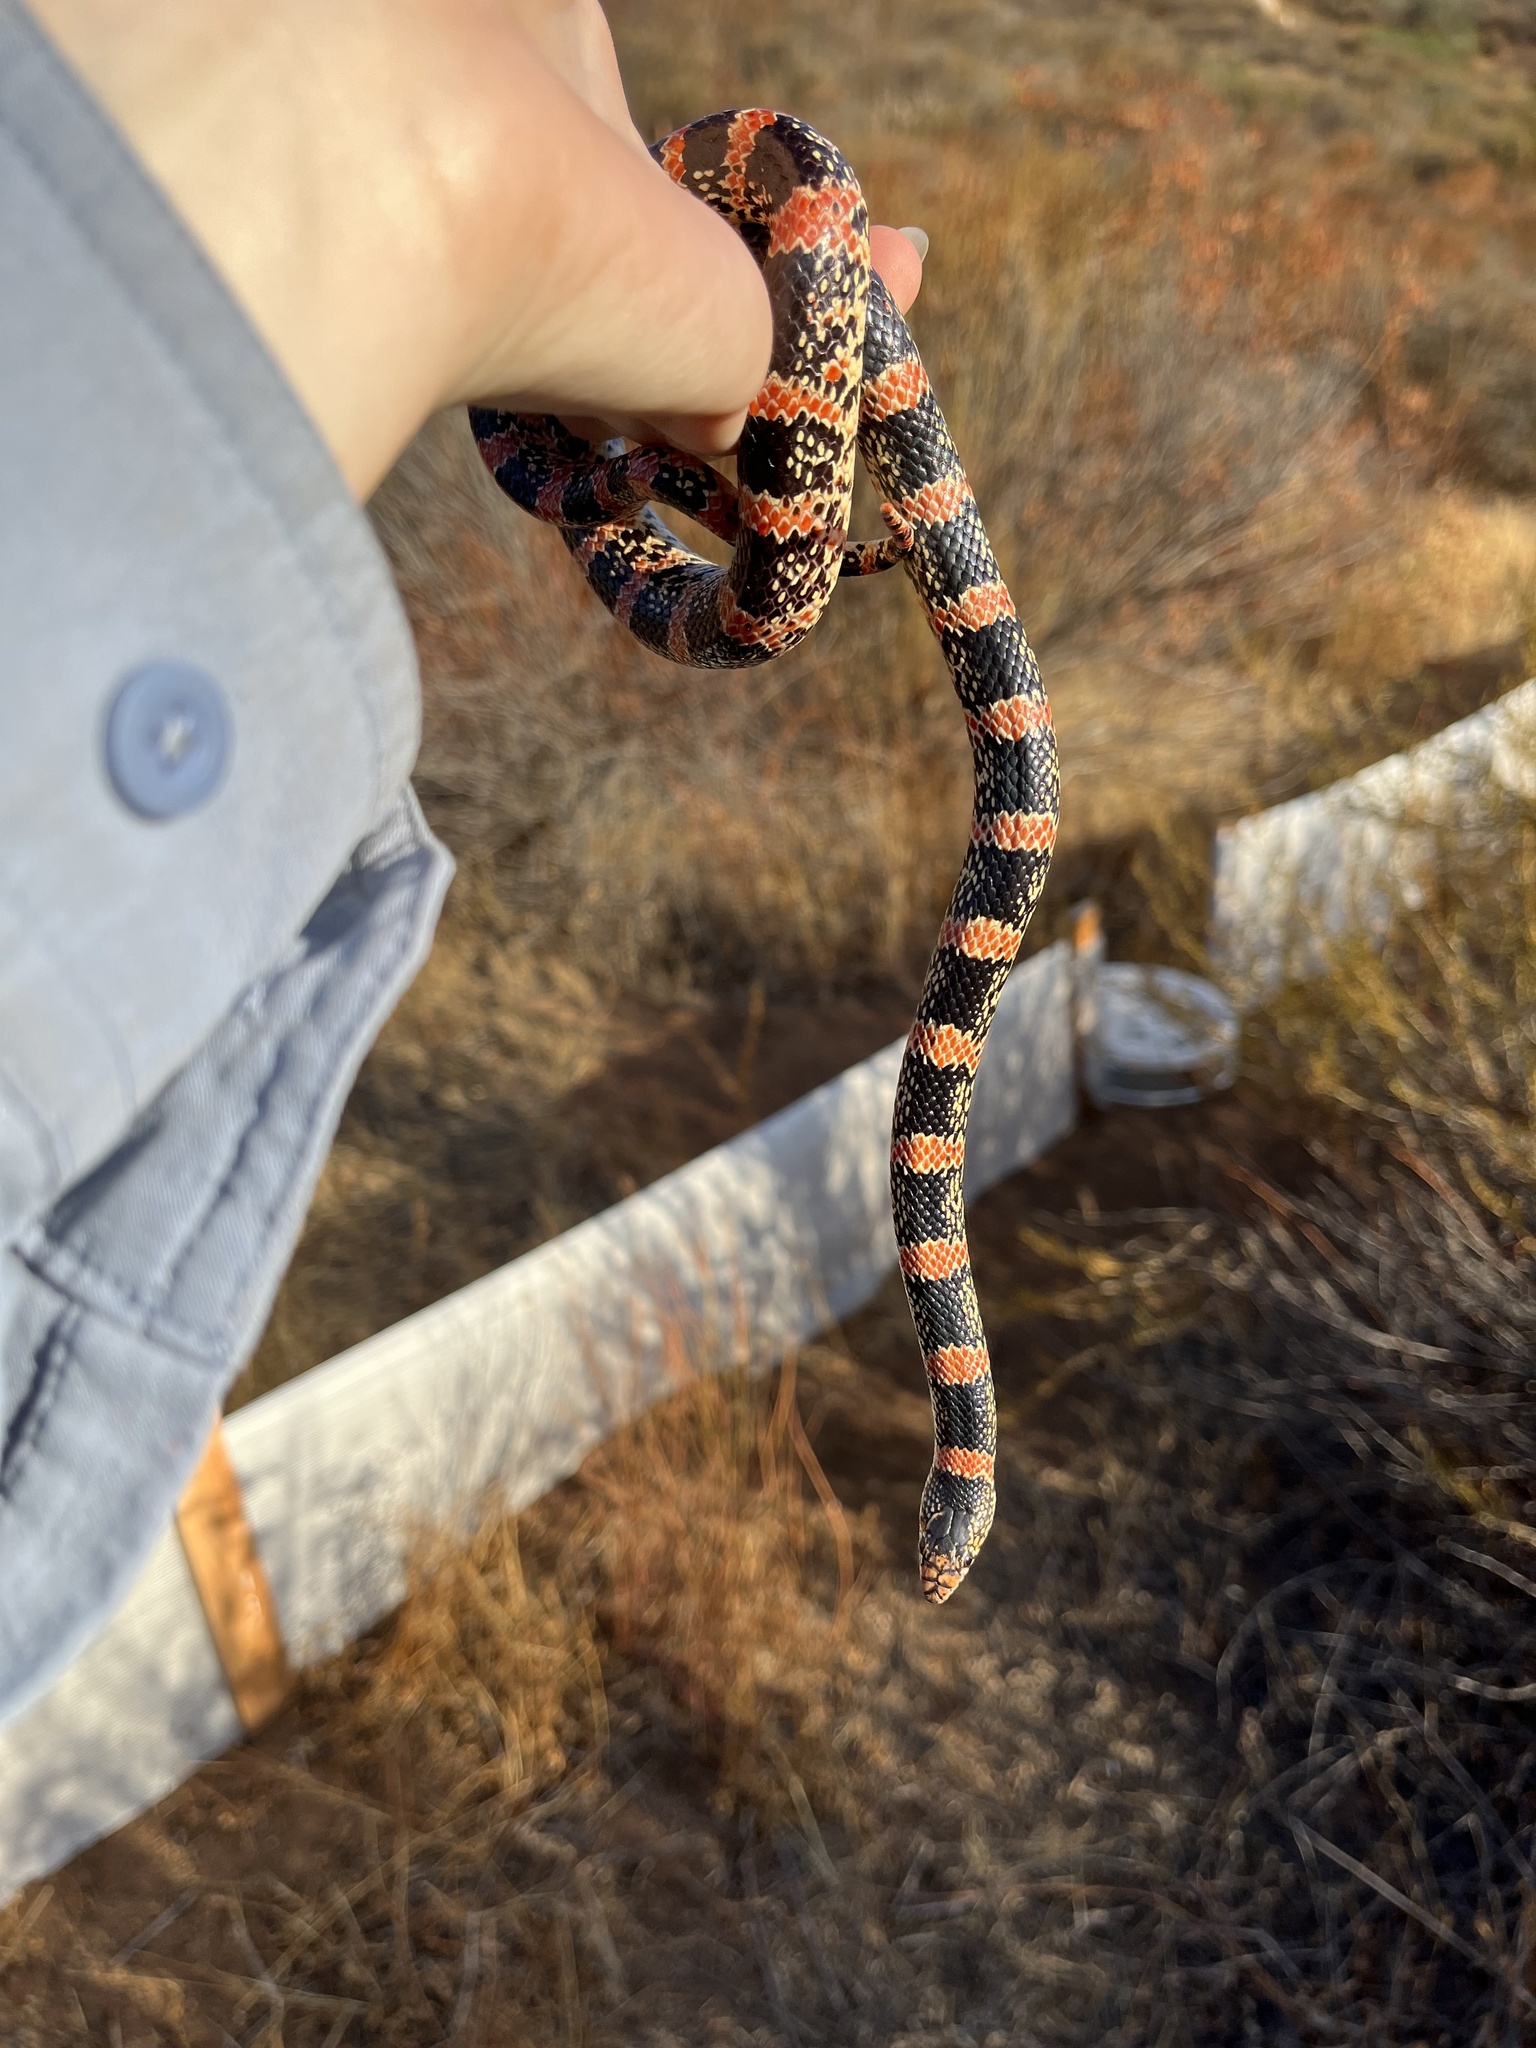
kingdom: Animalia
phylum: Chordata
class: Squamata
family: Colubridae
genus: Rhinocheilus
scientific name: Rhinocheilus lecontei
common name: Longnose snake
